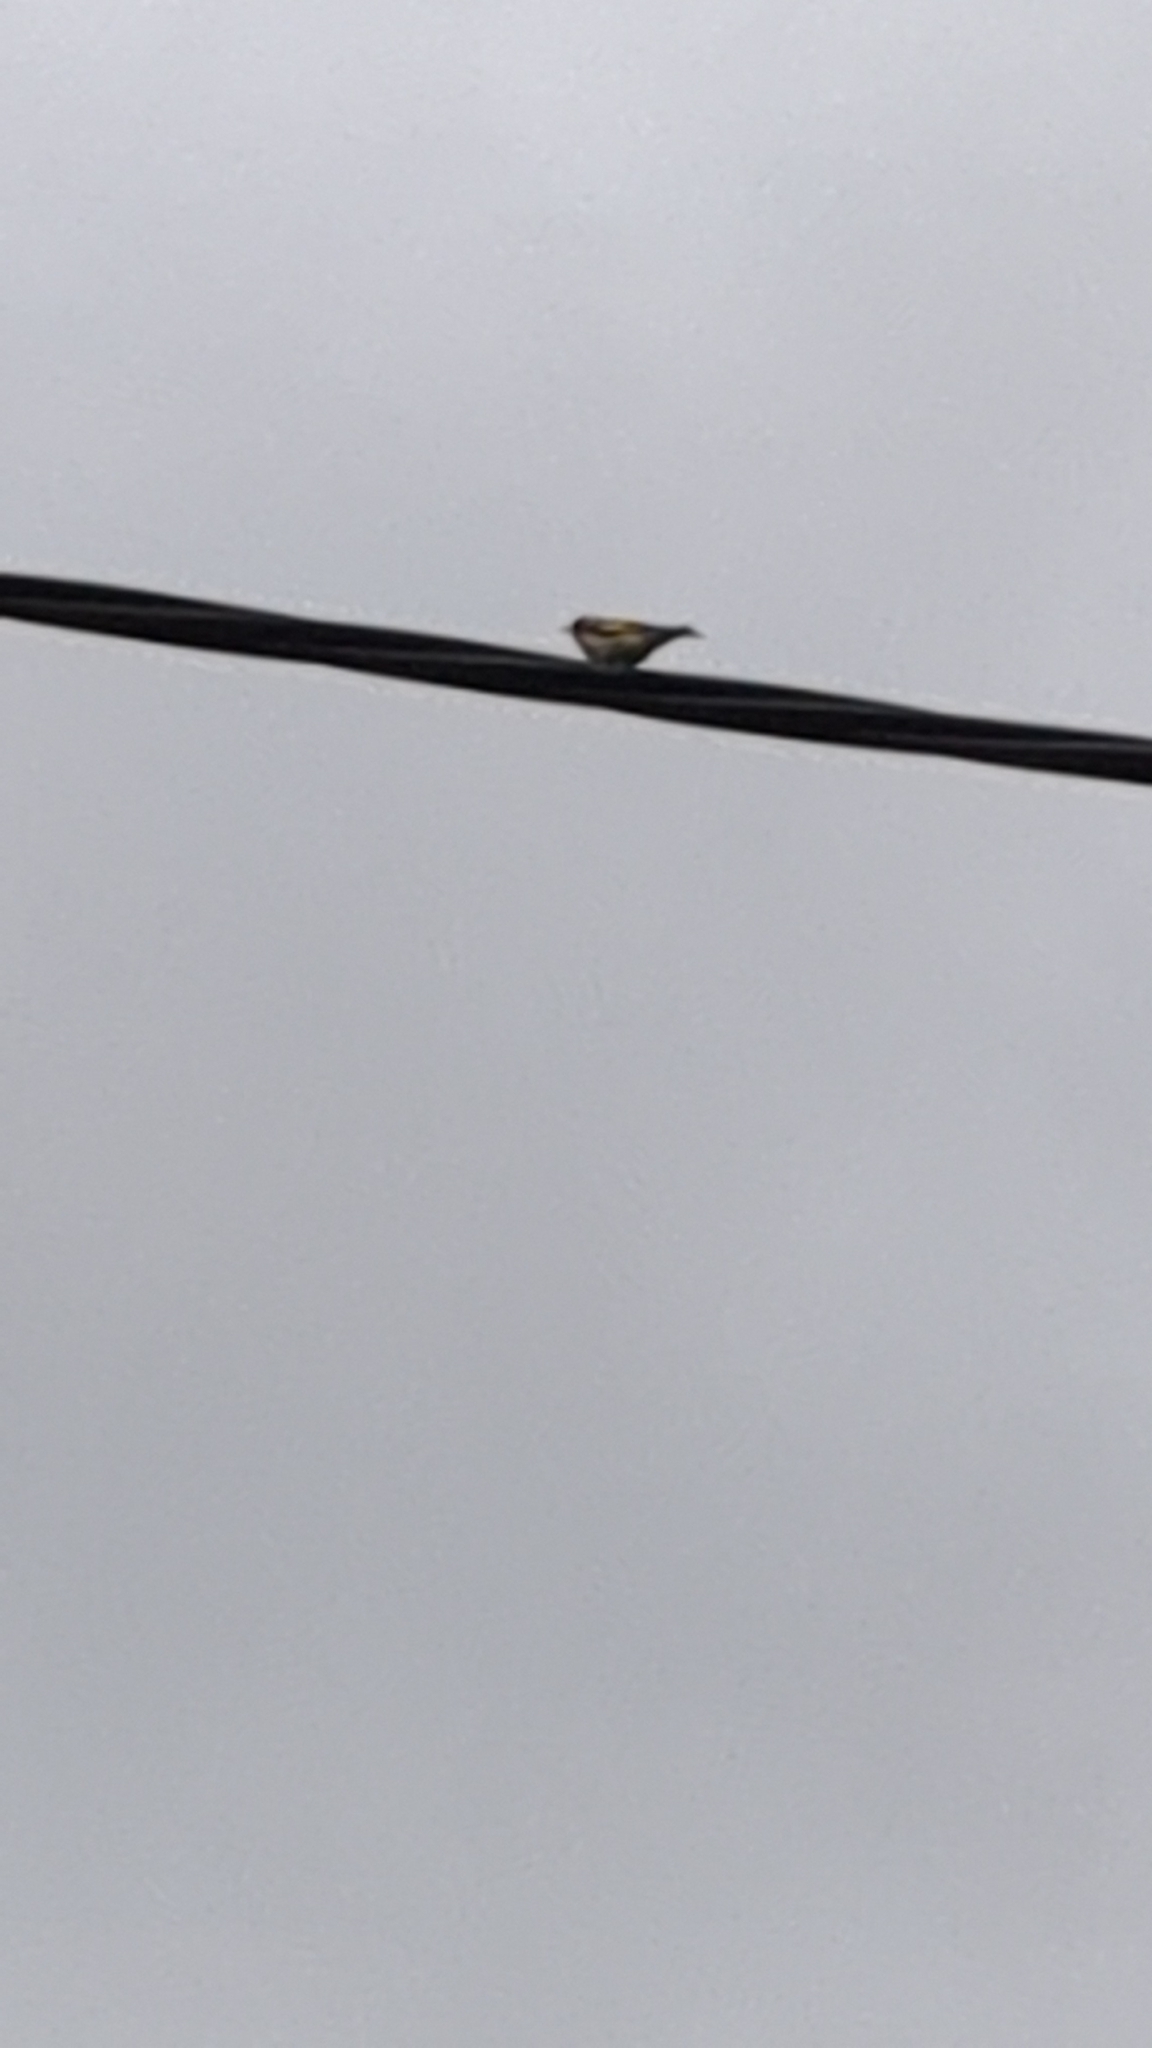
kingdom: Animalia
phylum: Chordata
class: Aves
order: Passeriformes
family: Fringillidae
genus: Carduelis
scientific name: Carduelis carduelis
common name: European goldfinch
